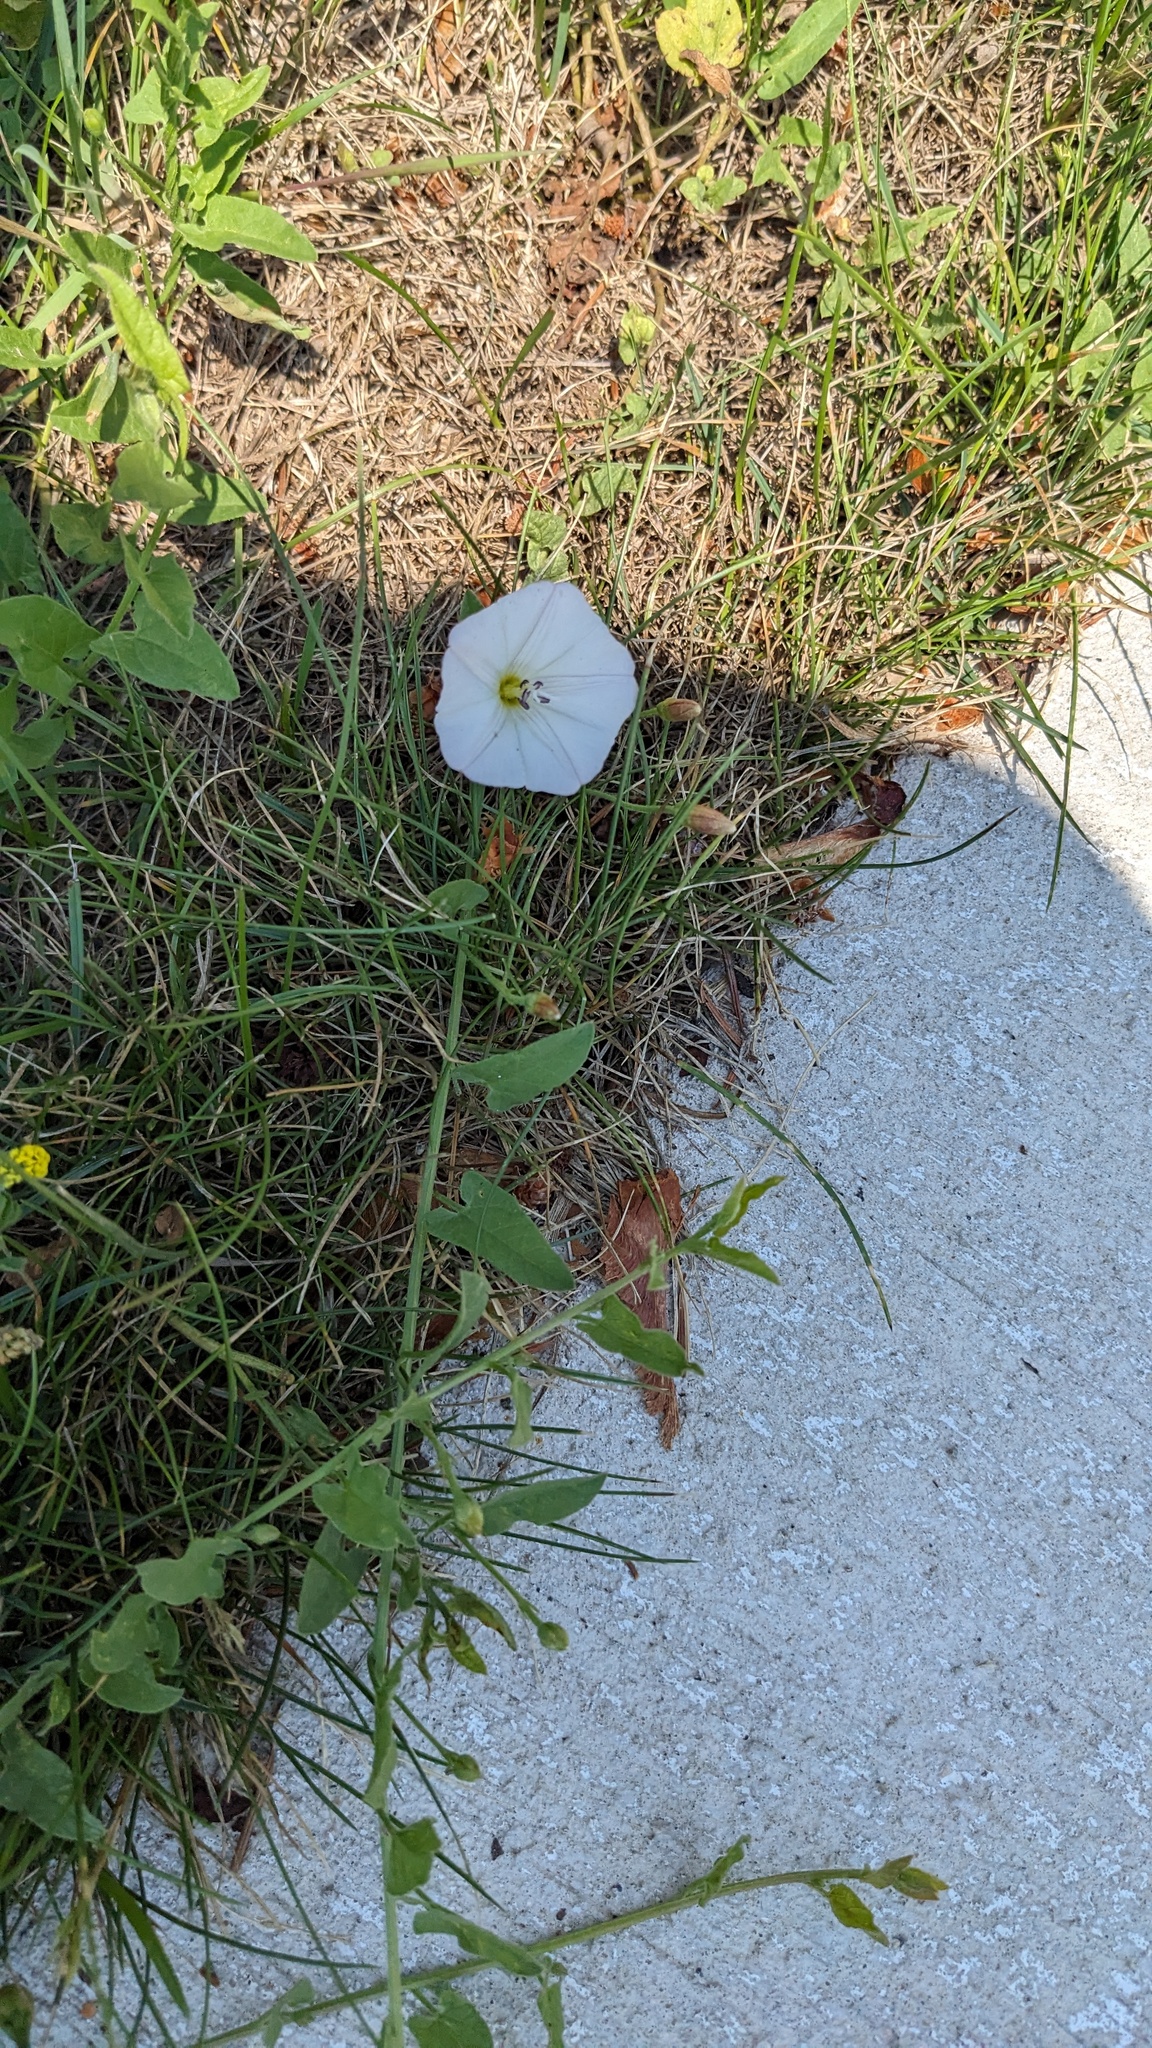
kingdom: Plantae
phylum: Tracheophyta
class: Magnoliopsida
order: Solanales
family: Convolvulaceae
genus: Convolvulus
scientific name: Convolvulus arvensis
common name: Field bindweed
